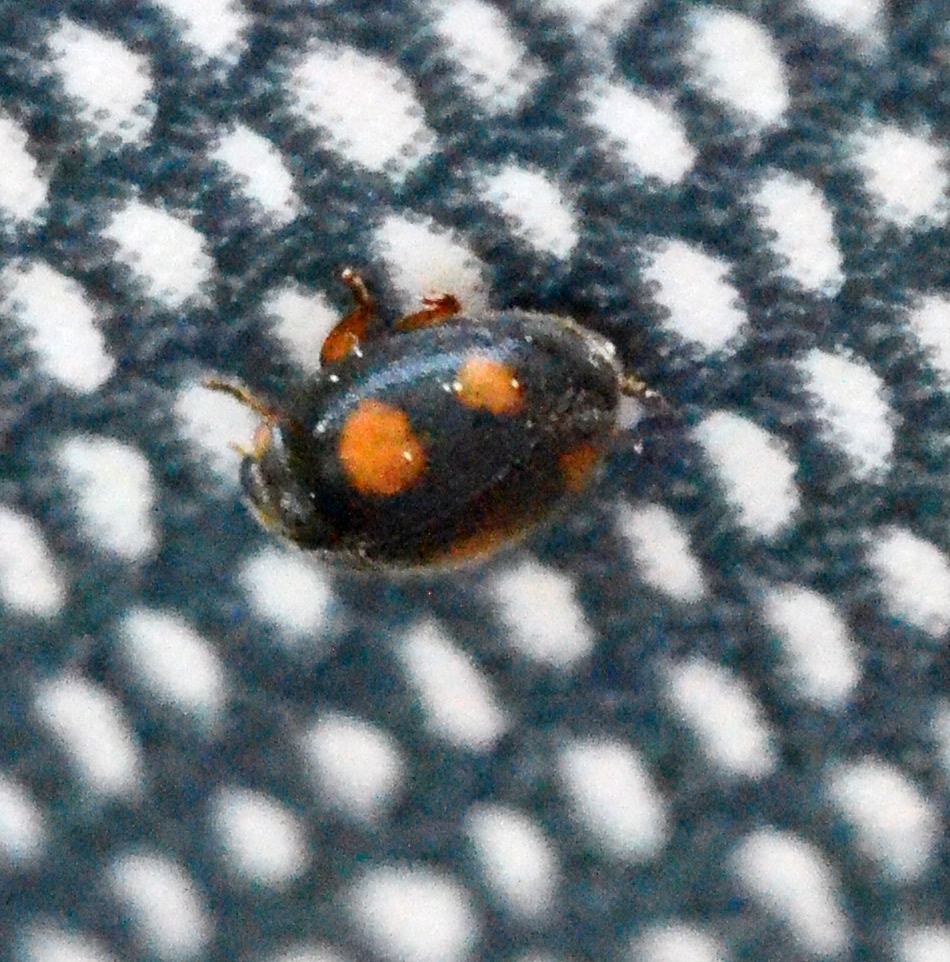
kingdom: Animalia
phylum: Arthropoda
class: Insecta
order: Coleoptera
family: Coccinellidae
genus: Platynaspis
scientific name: Platynaspis luteorubra
